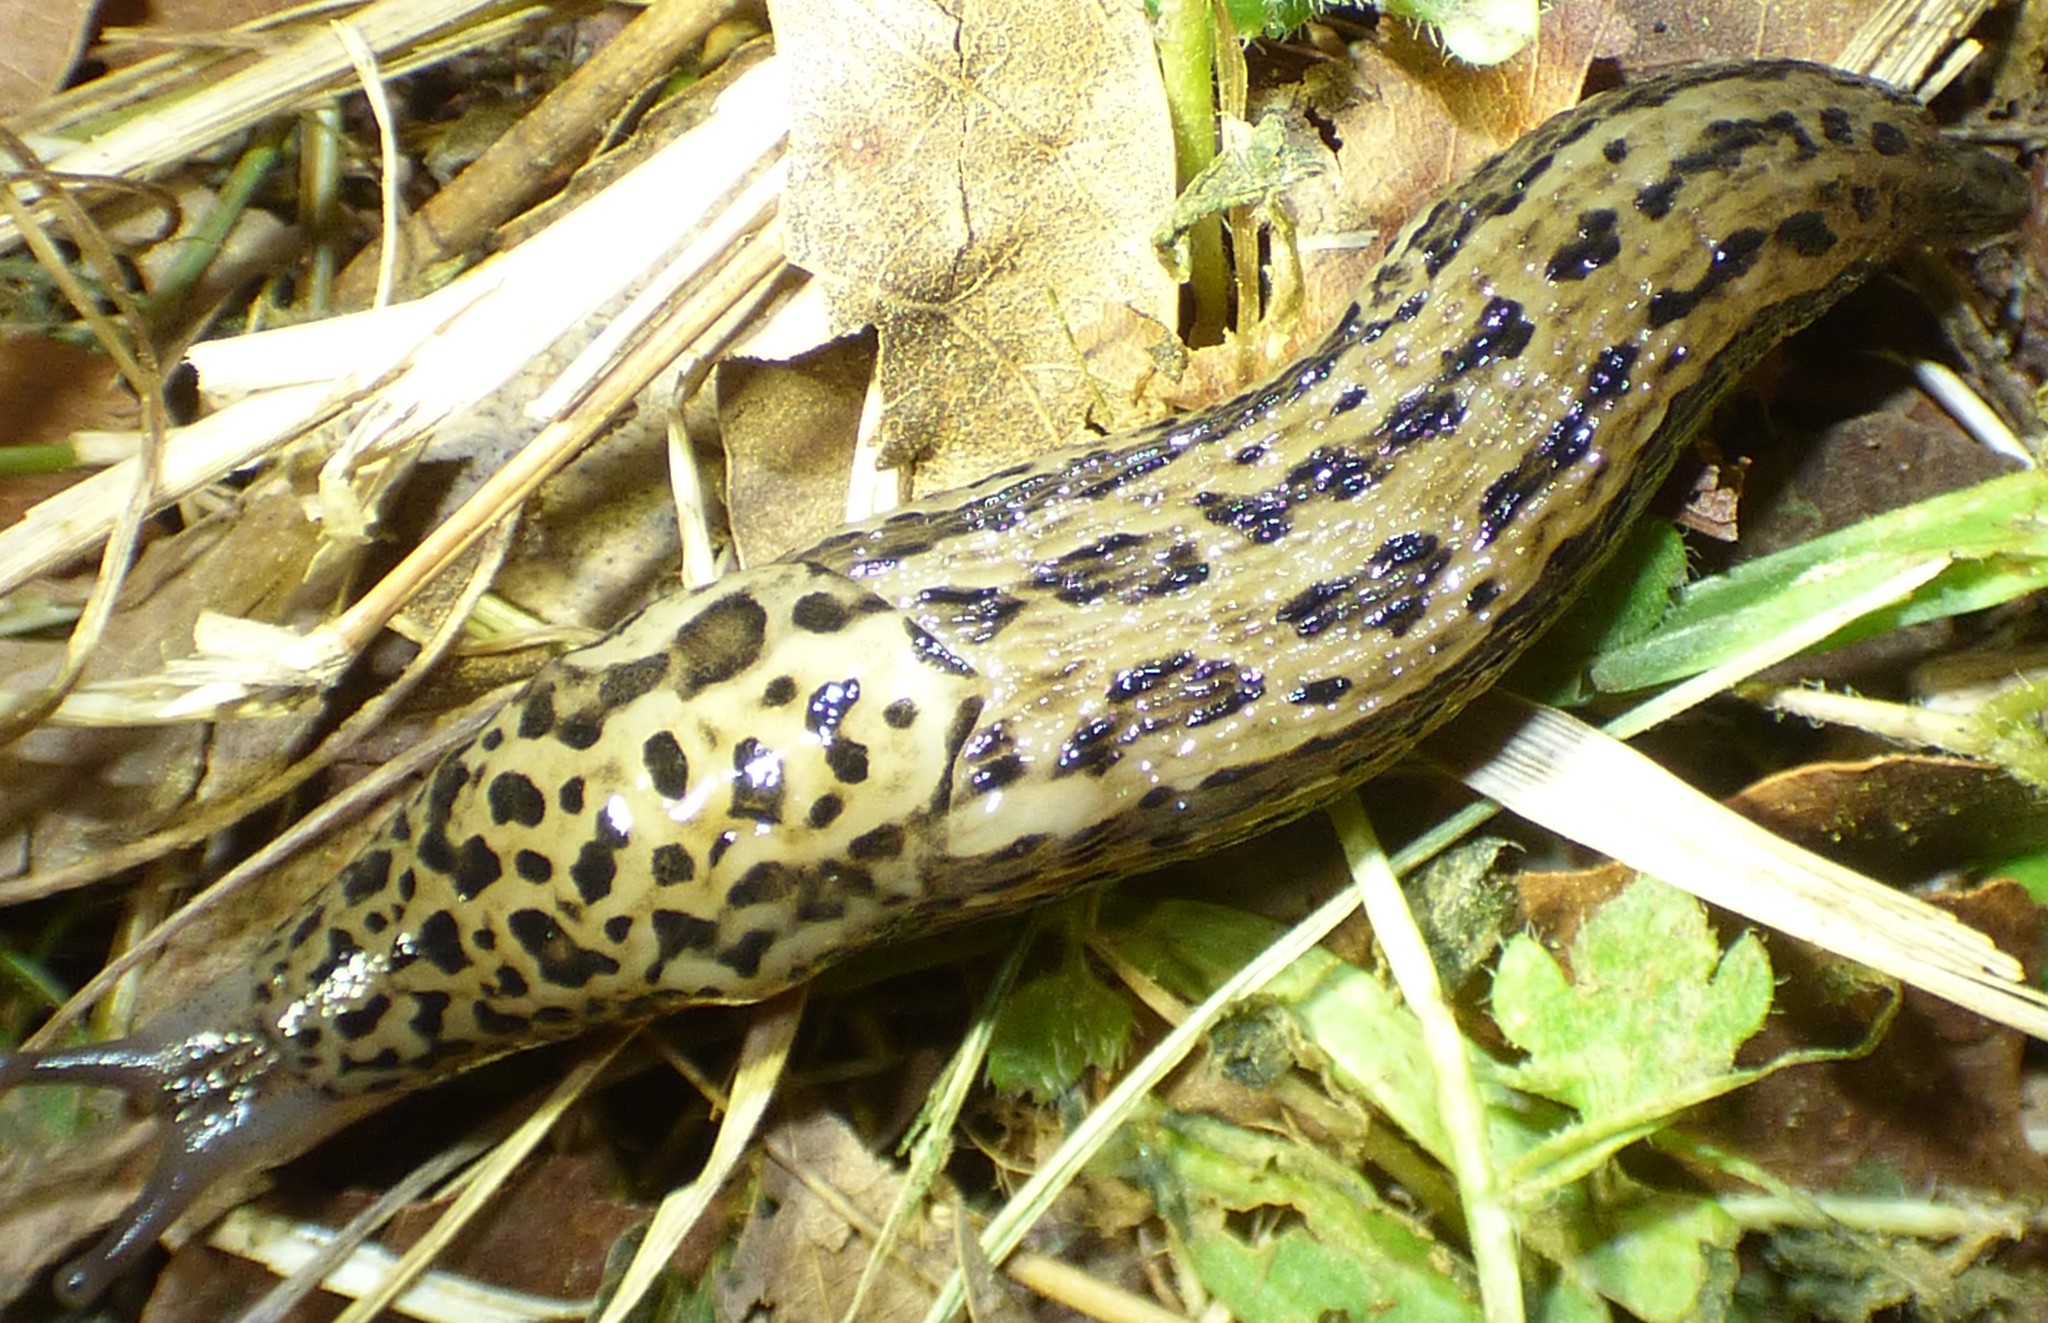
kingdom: Animalia
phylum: Mollusca
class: Gastropoda
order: Stylommatophora
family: Limacidae
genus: Limax
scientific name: Limax maximus
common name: Great grey slug
